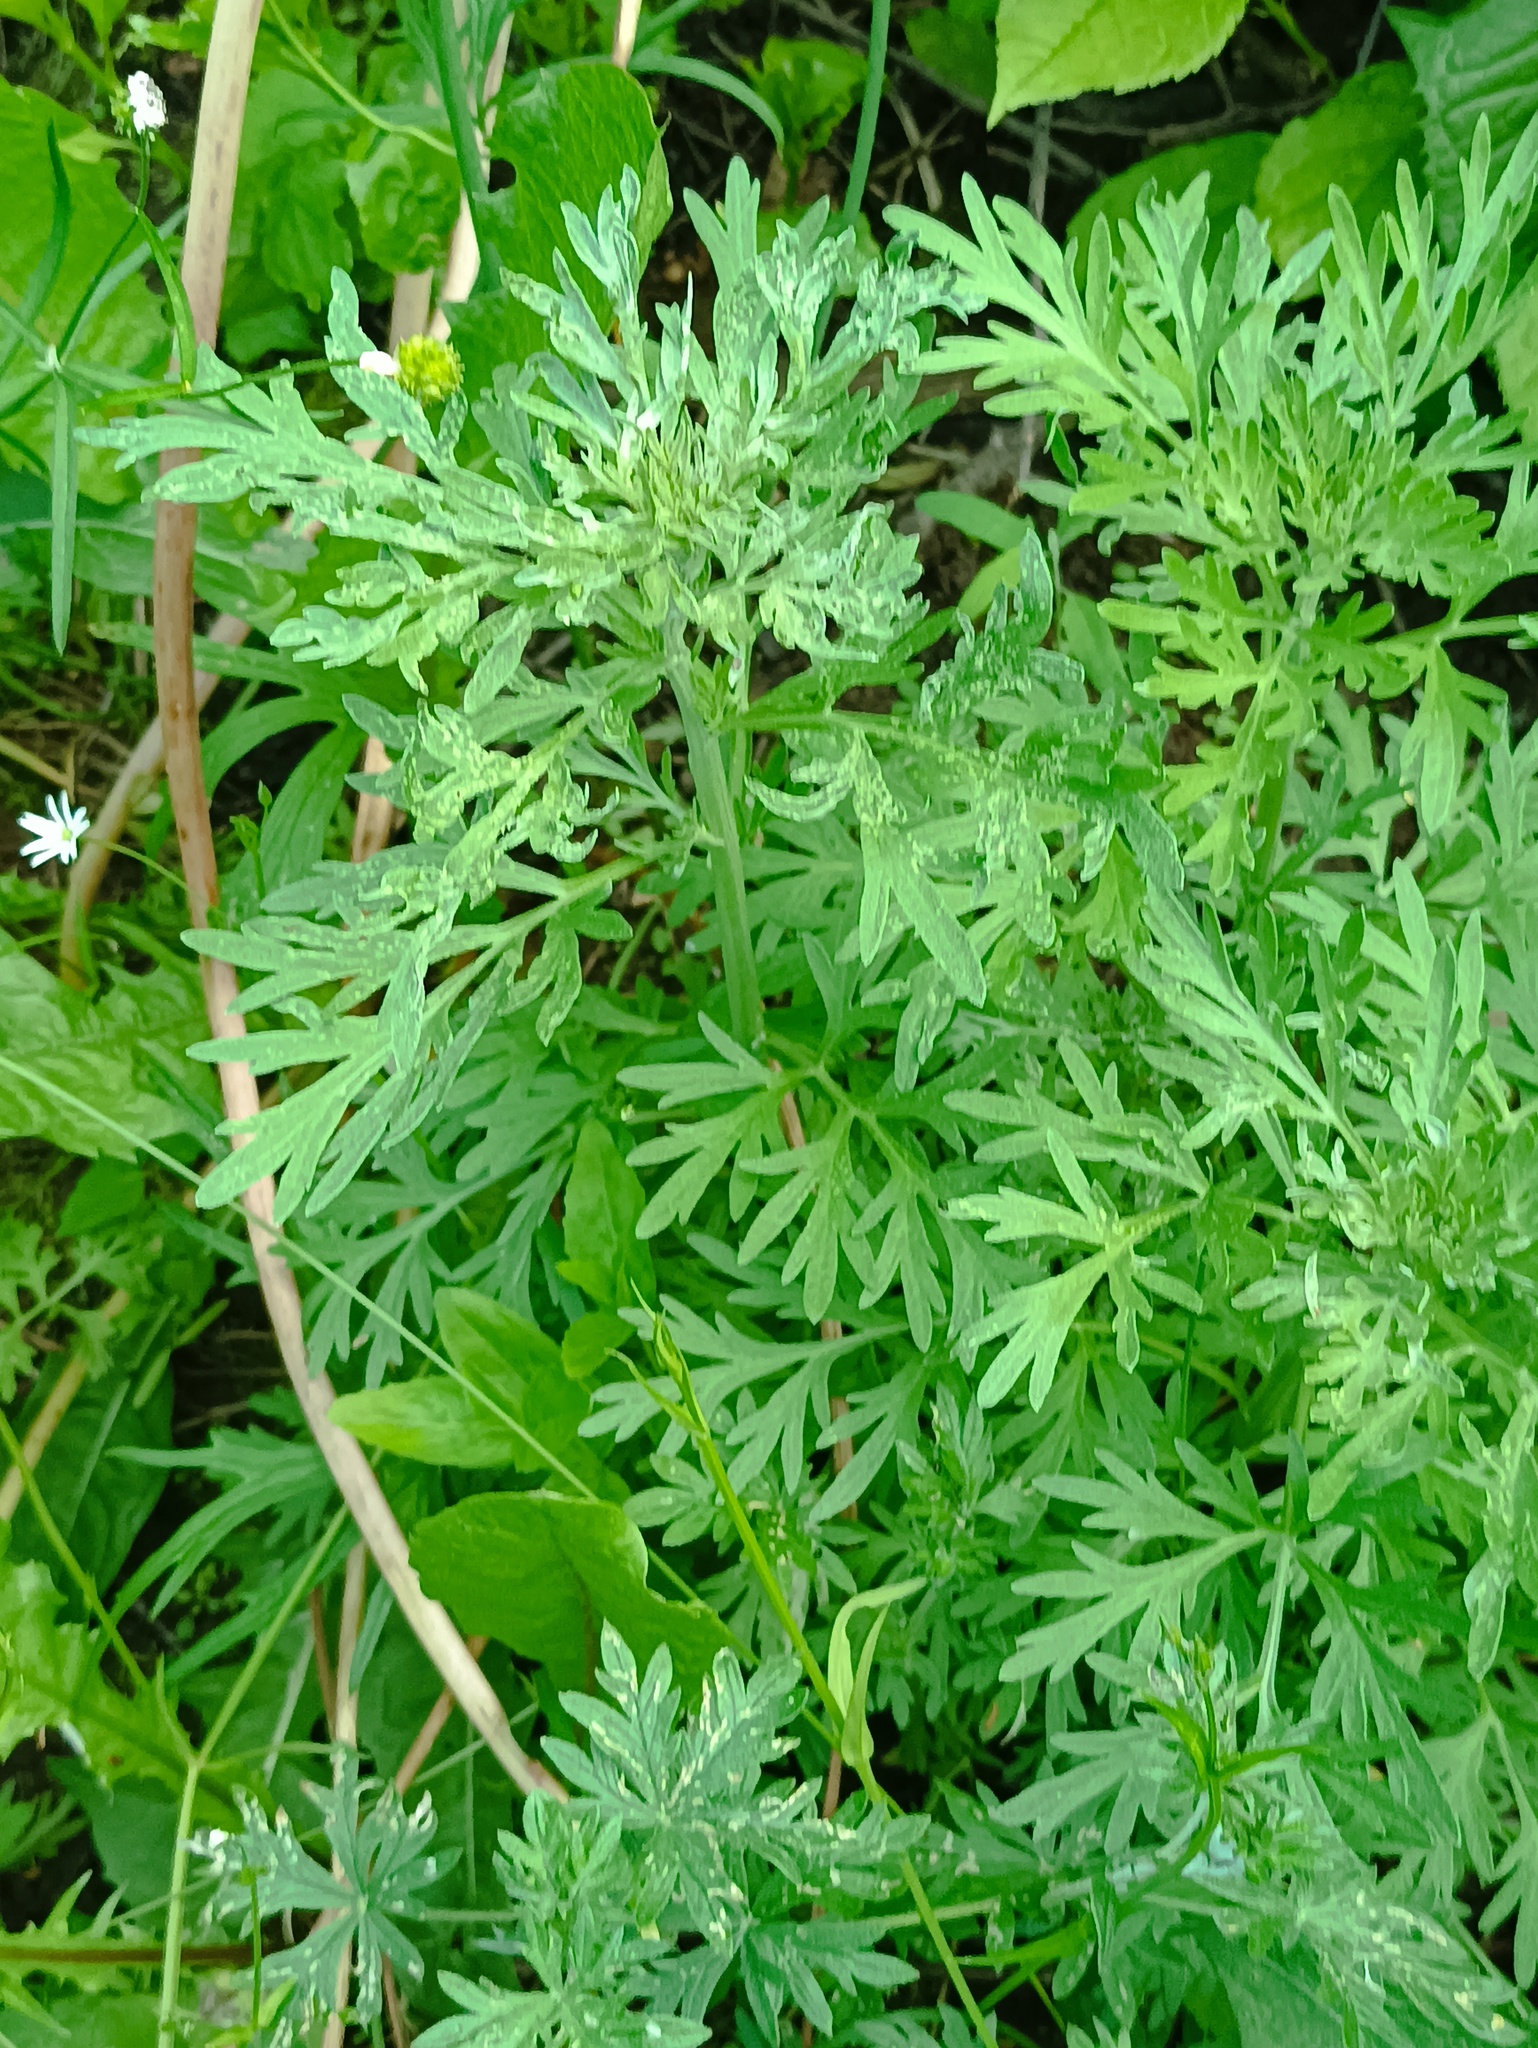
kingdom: Plantae
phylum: Tracheophyta
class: Magnoliopsida
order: Asterales
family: Asteraceae
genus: Artemisia
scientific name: Artemisia absinthium
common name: Wormwood
